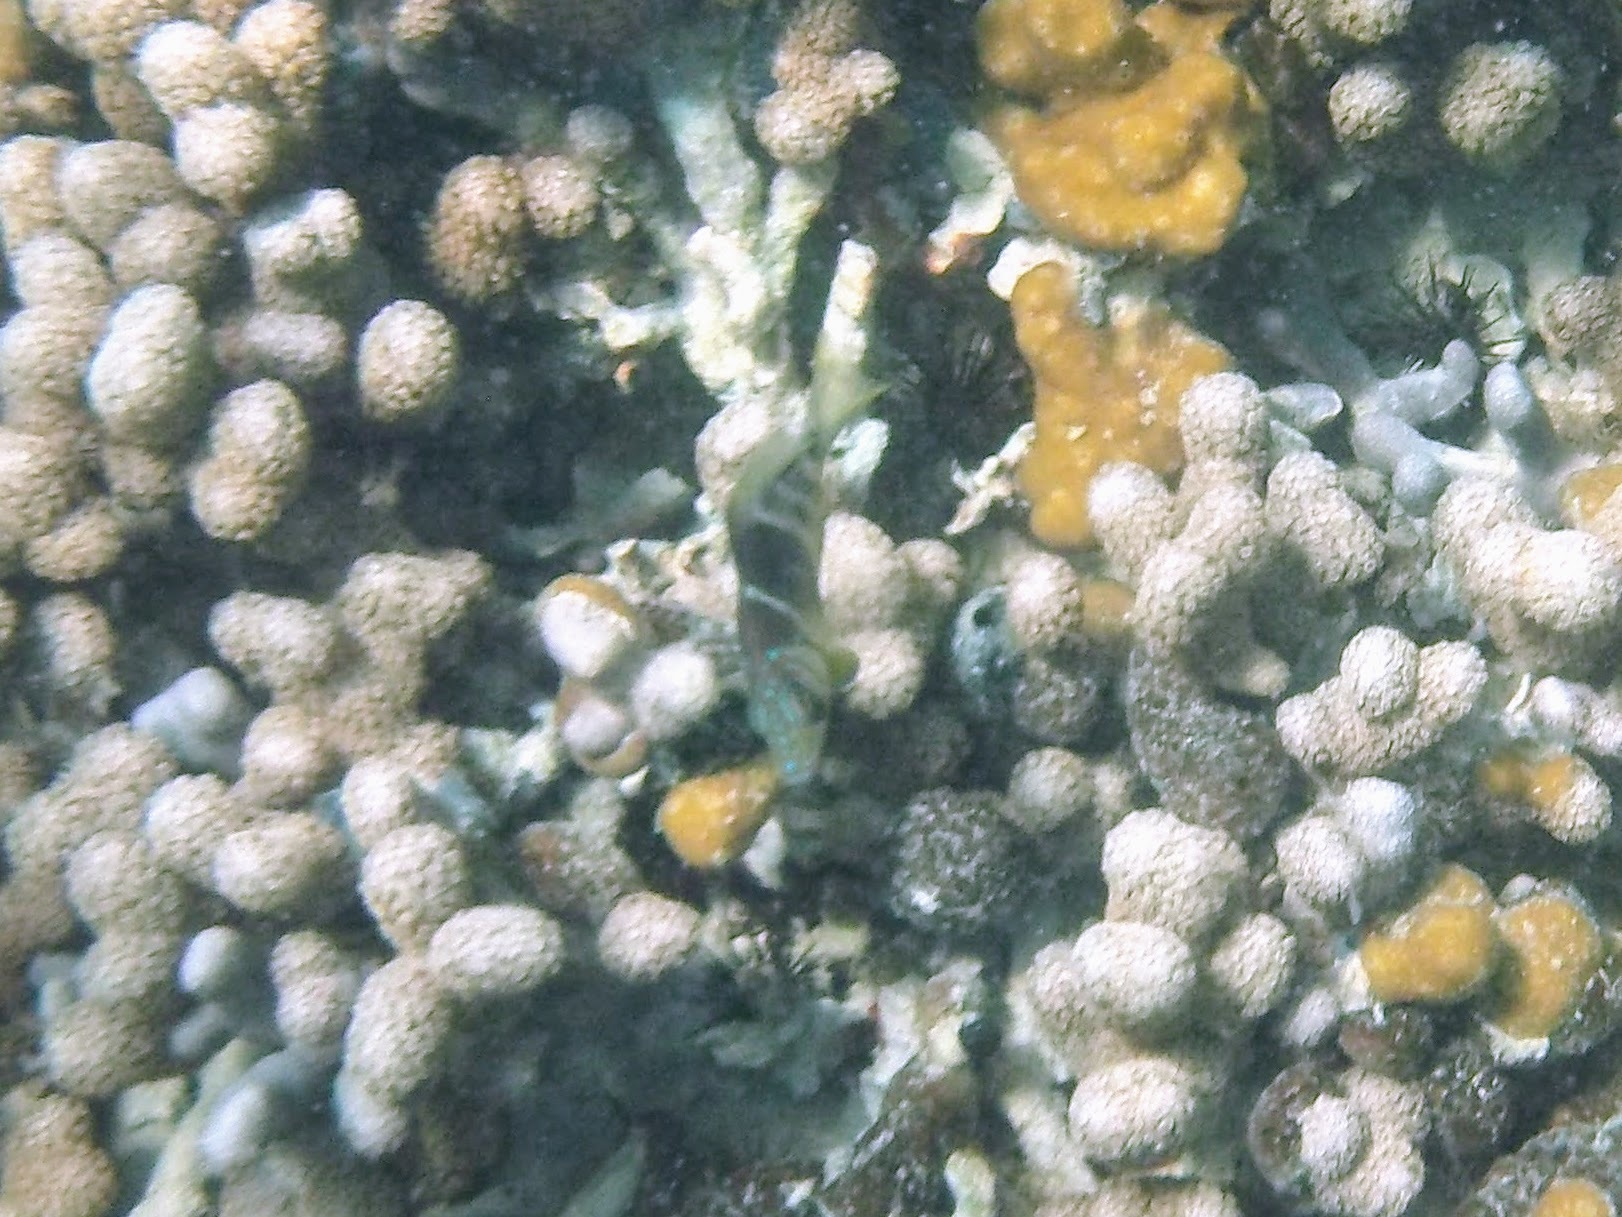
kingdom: Animalia
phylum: Chordata
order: Perciformes
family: Serranidae
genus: Hypoplectrus
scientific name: Hypoplectrus puella
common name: Barred hamlet
